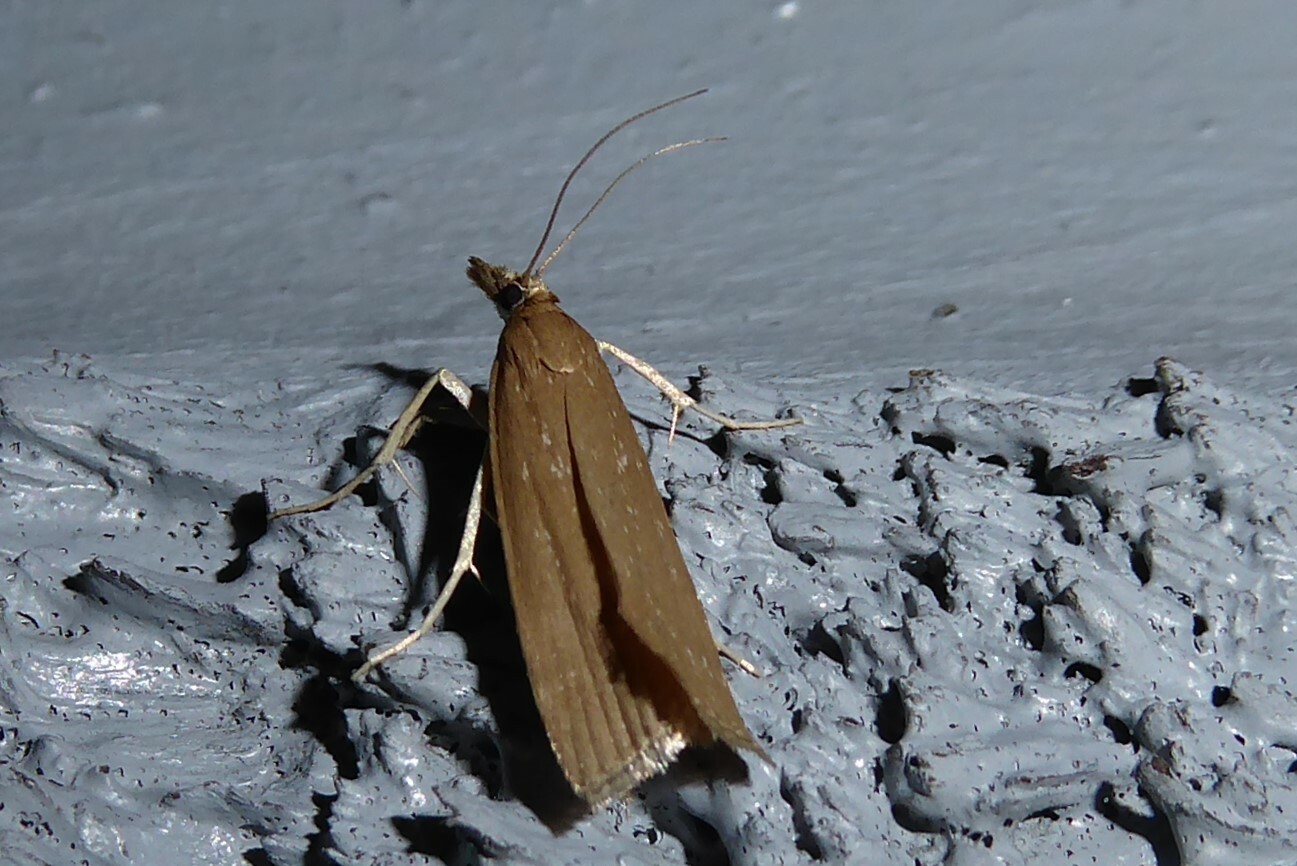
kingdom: Animalia
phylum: Arthropoda
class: Insecta
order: Lepidoptera
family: Crambidae
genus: Eudonia
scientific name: Eudonia octophora
